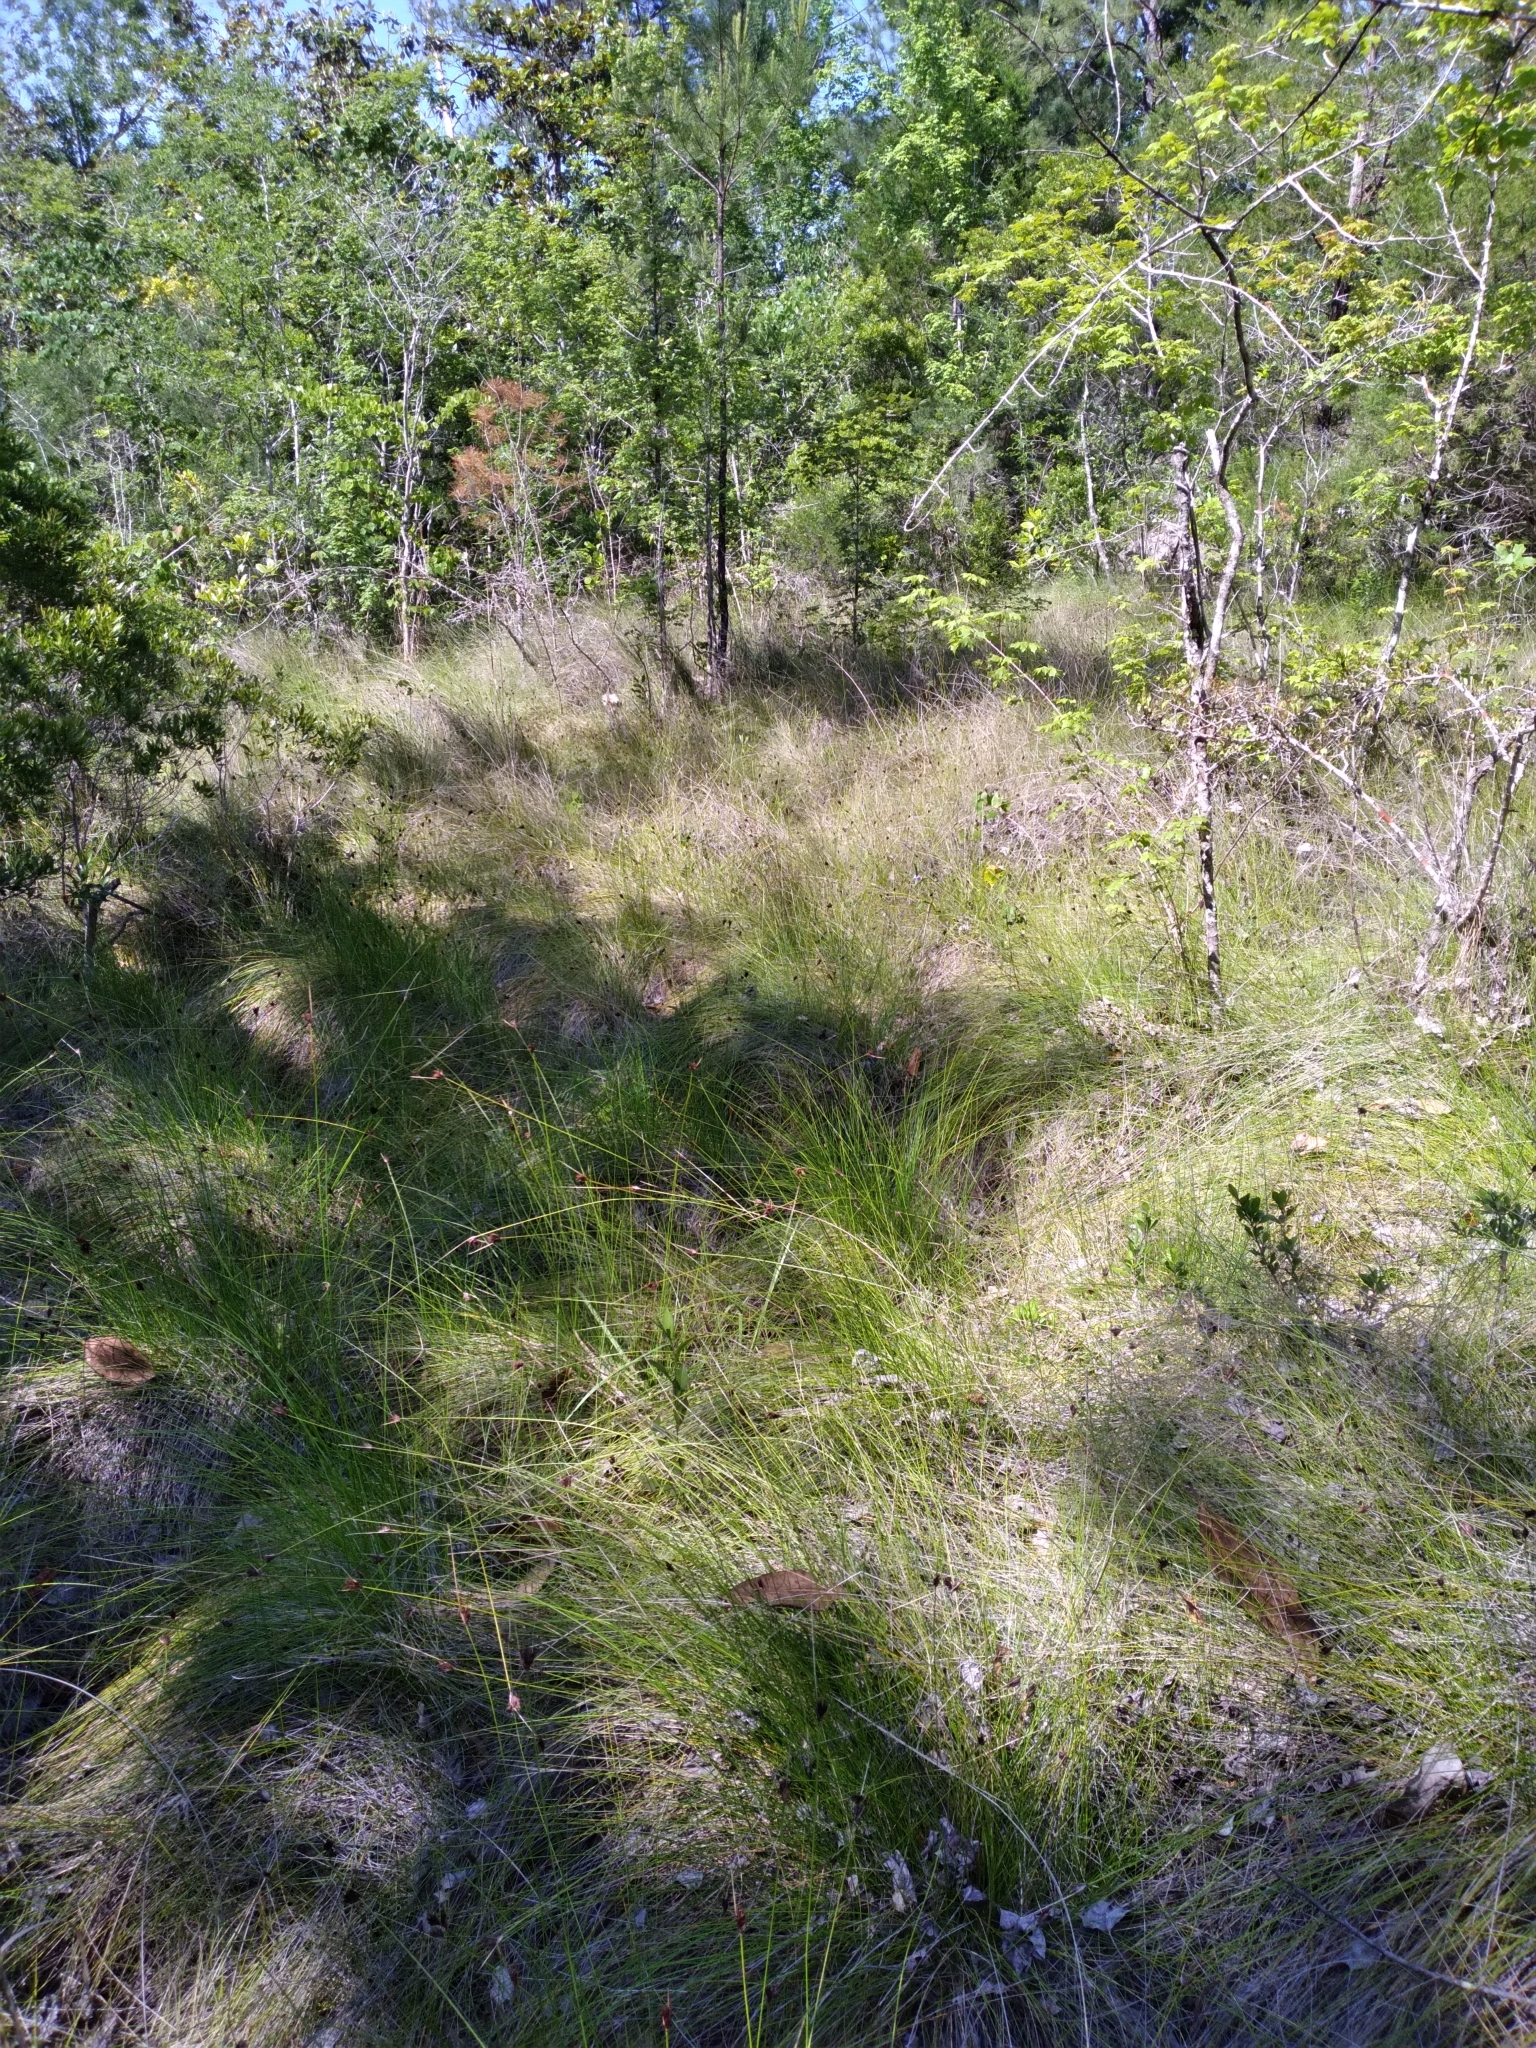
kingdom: Plantae
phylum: Tracheophyta
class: Liliopsida
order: Poales
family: Cyperaceae
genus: Schoenus
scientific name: Schoenus nigricans
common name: Black bog-rush
